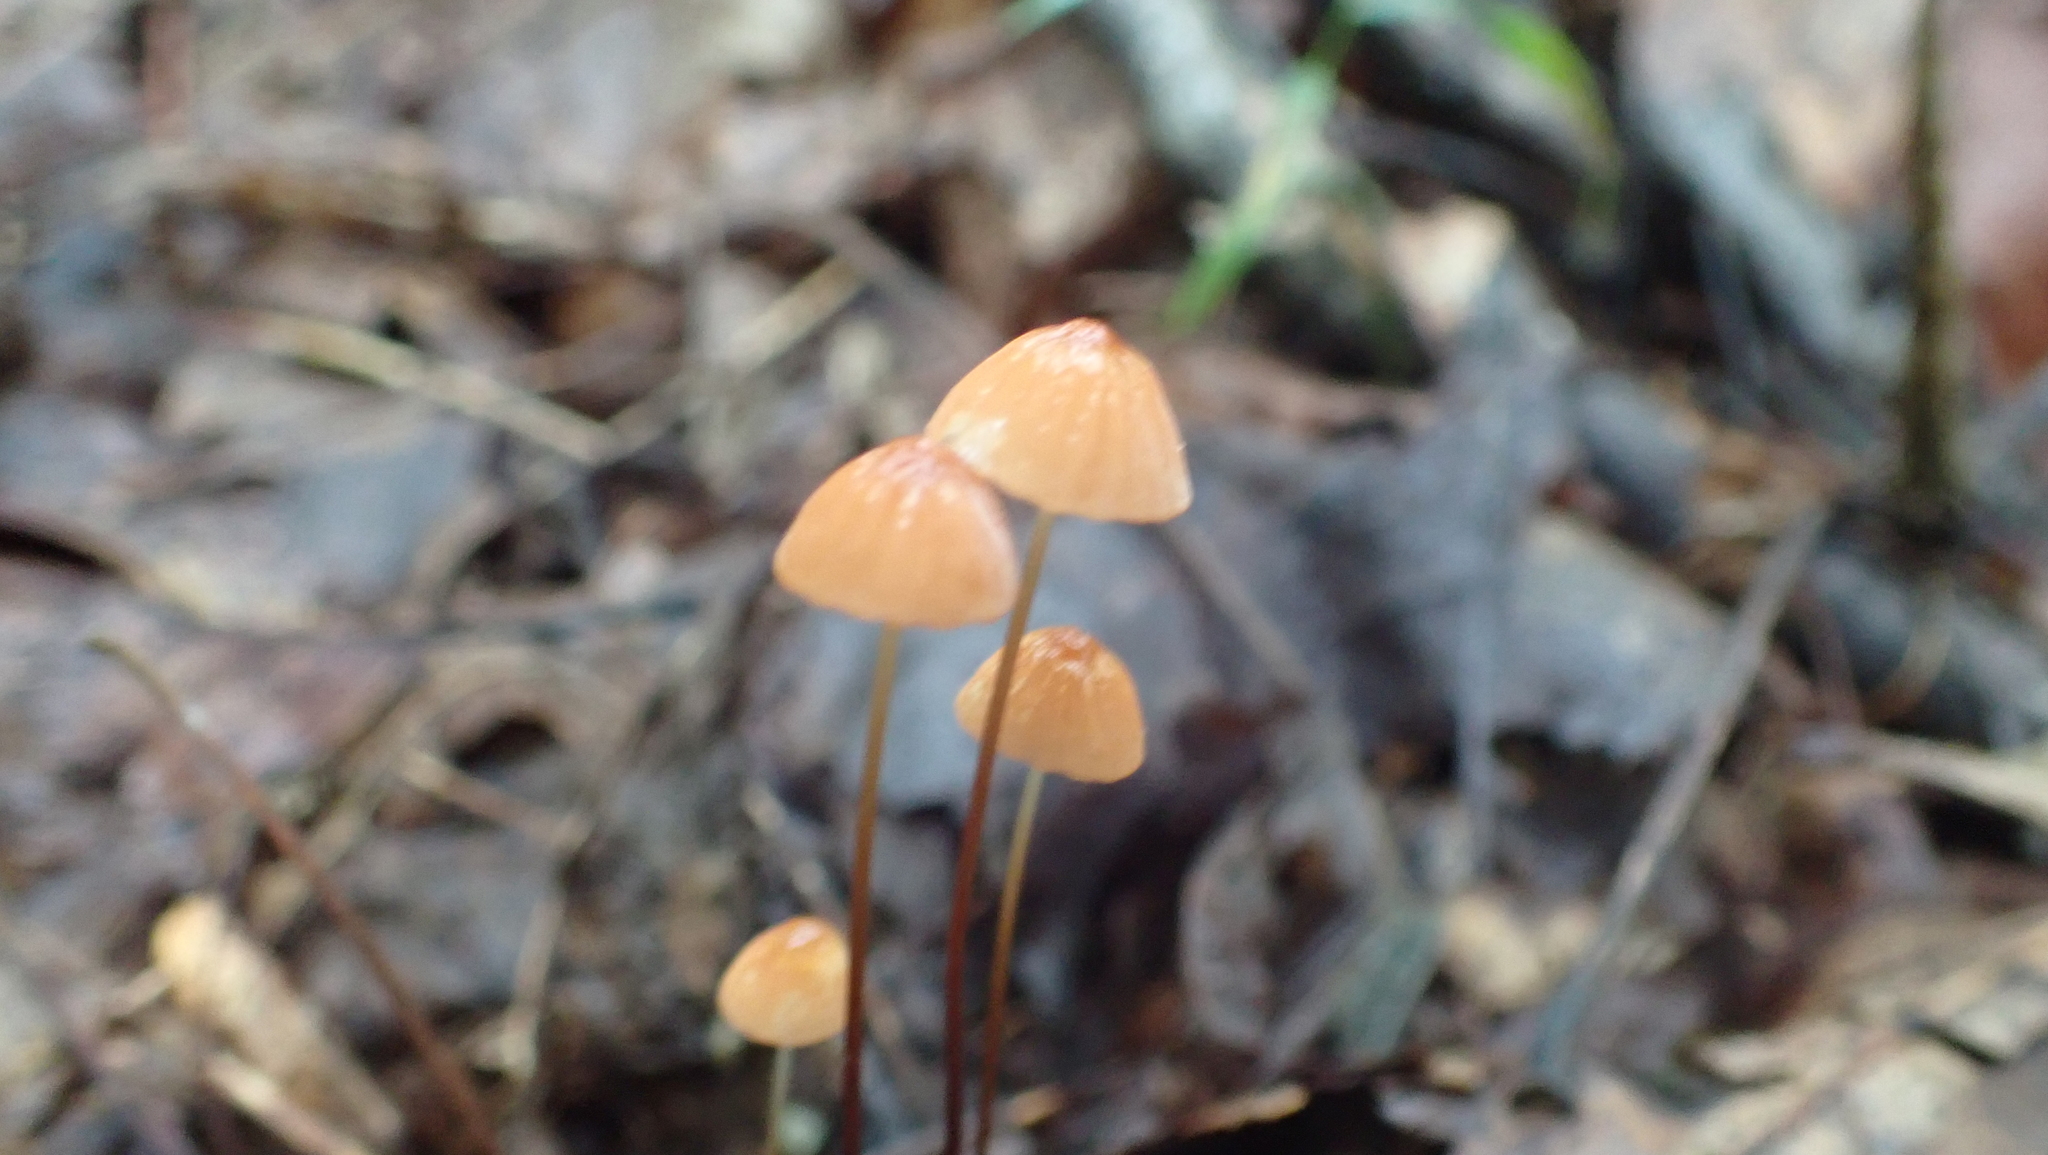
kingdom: Fungi
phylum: Basidiomycota
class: Agaricomycetes
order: Agaricales
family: Marasmiaceae
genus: Marasmius
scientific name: Marasmius siccus
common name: Orange pinwheel
